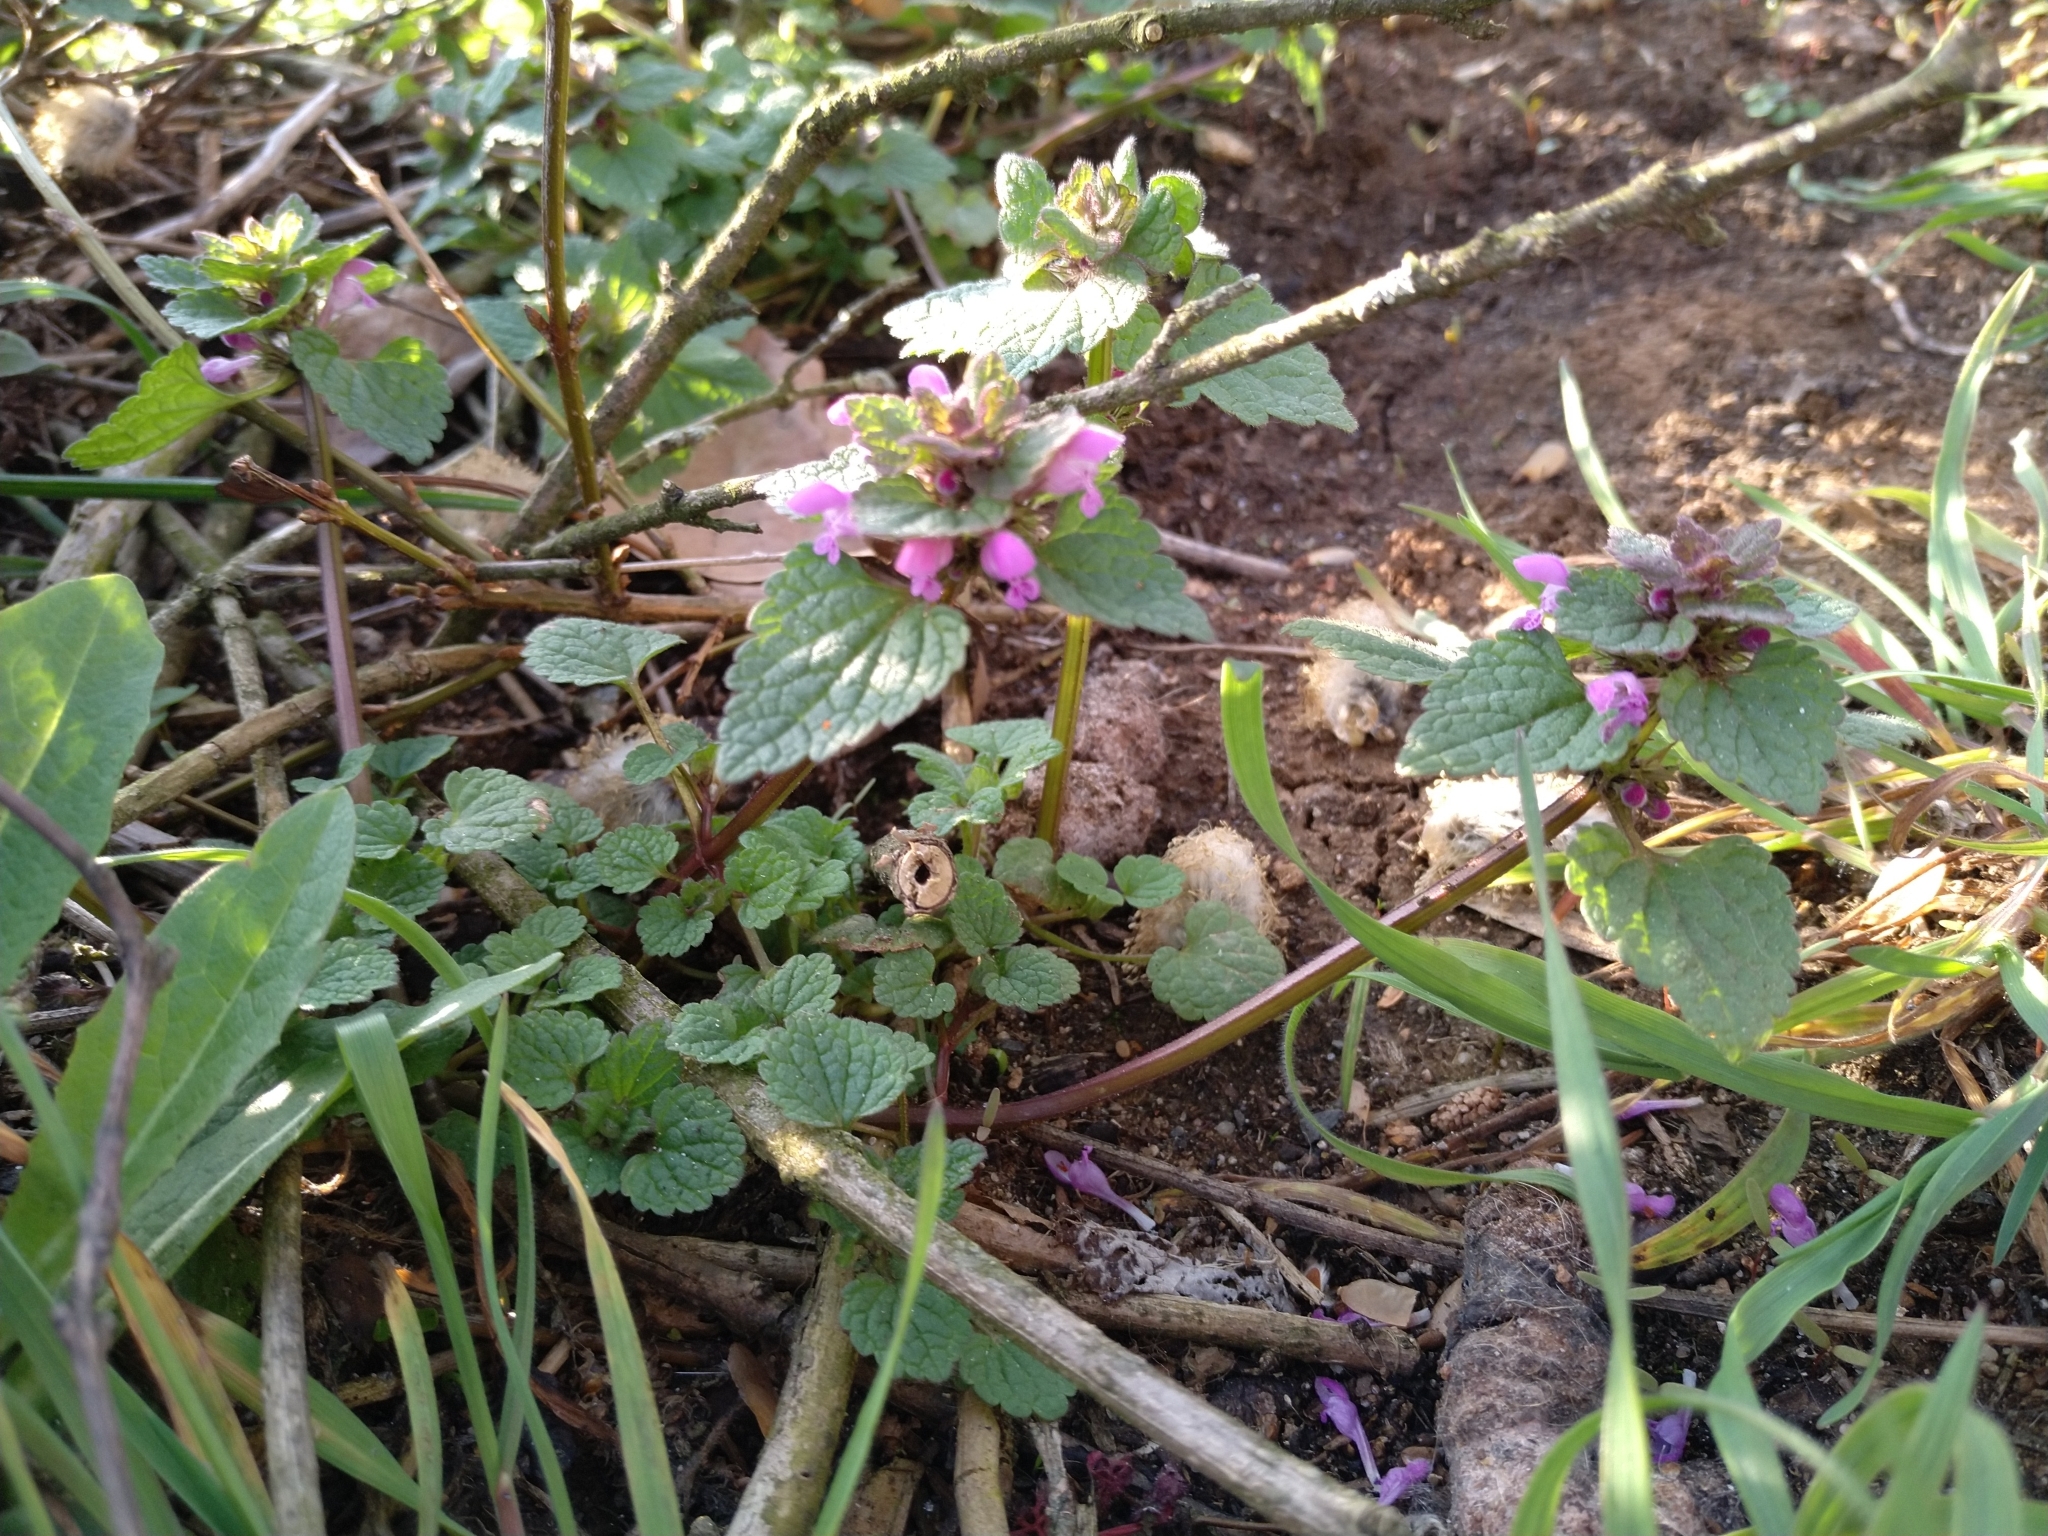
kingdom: Plantae
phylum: Tracheophyta
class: Magnoliopsida
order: Lamiales
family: Lamiaceae
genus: Lamium
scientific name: Lamium purpureum
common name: Red dead-nettle
